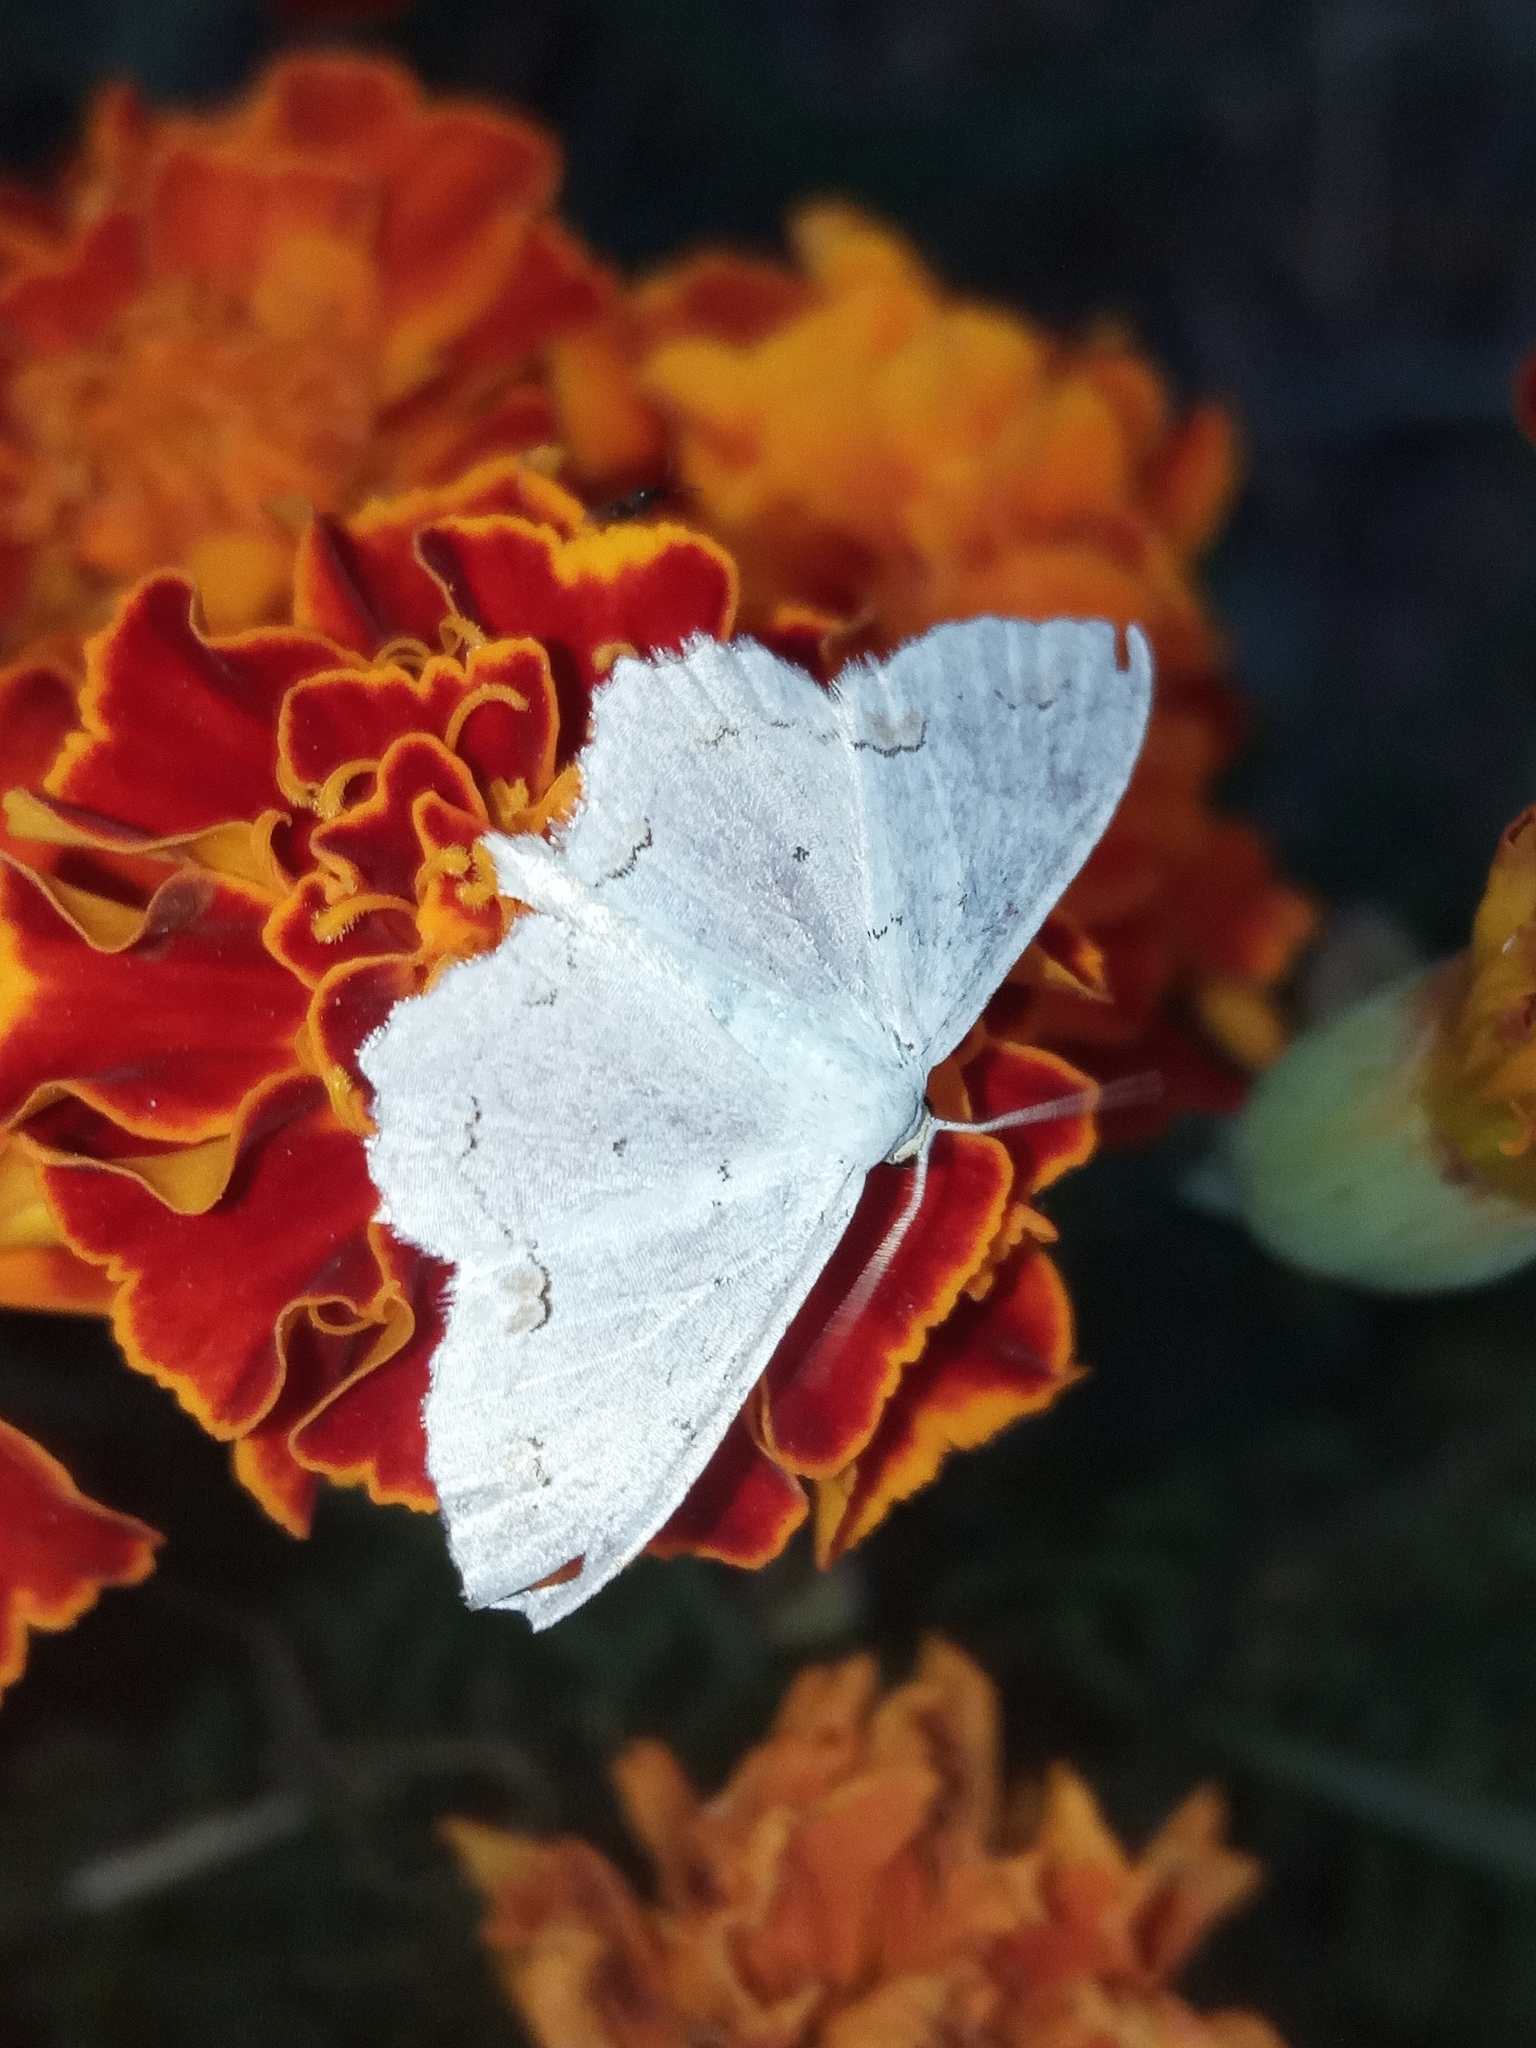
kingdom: Animalia
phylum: Arthropoda
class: Insecta
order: Lepidoptera
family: Geometridae
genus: Scopula
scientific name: Scopula ornata
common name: Lace border
